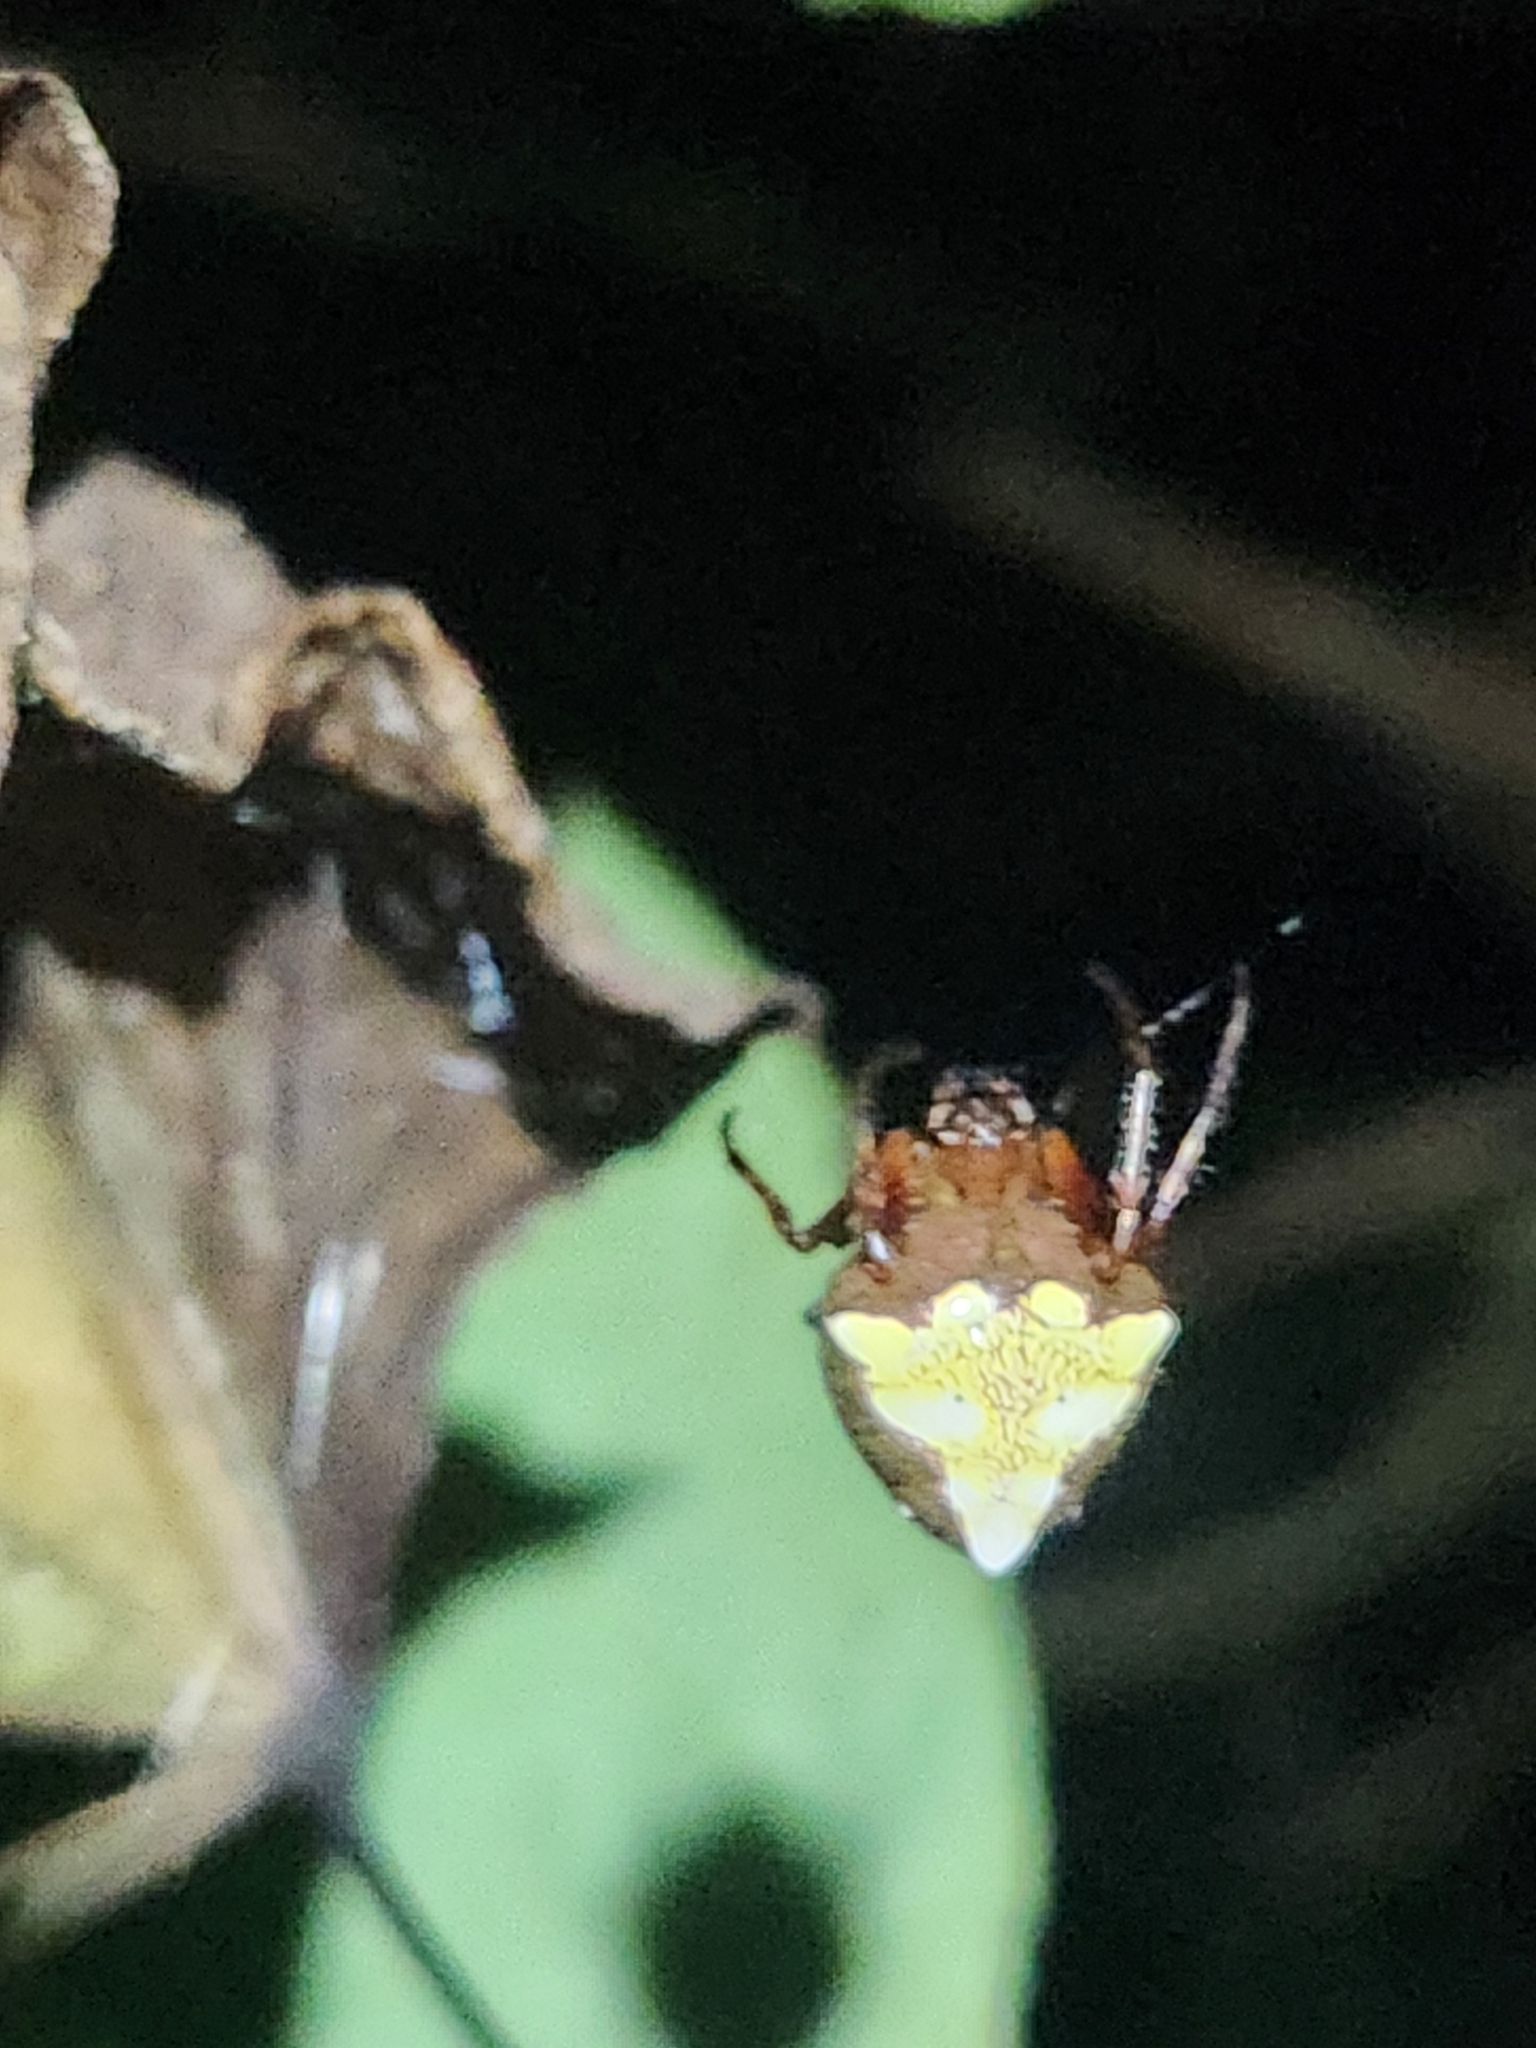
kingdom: Animalia
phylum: Arthropoda
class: Arachnida
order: Araneae
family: Araneidae
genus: Verrucosa
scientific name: Verrucosa arenata
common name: Orb weavers
